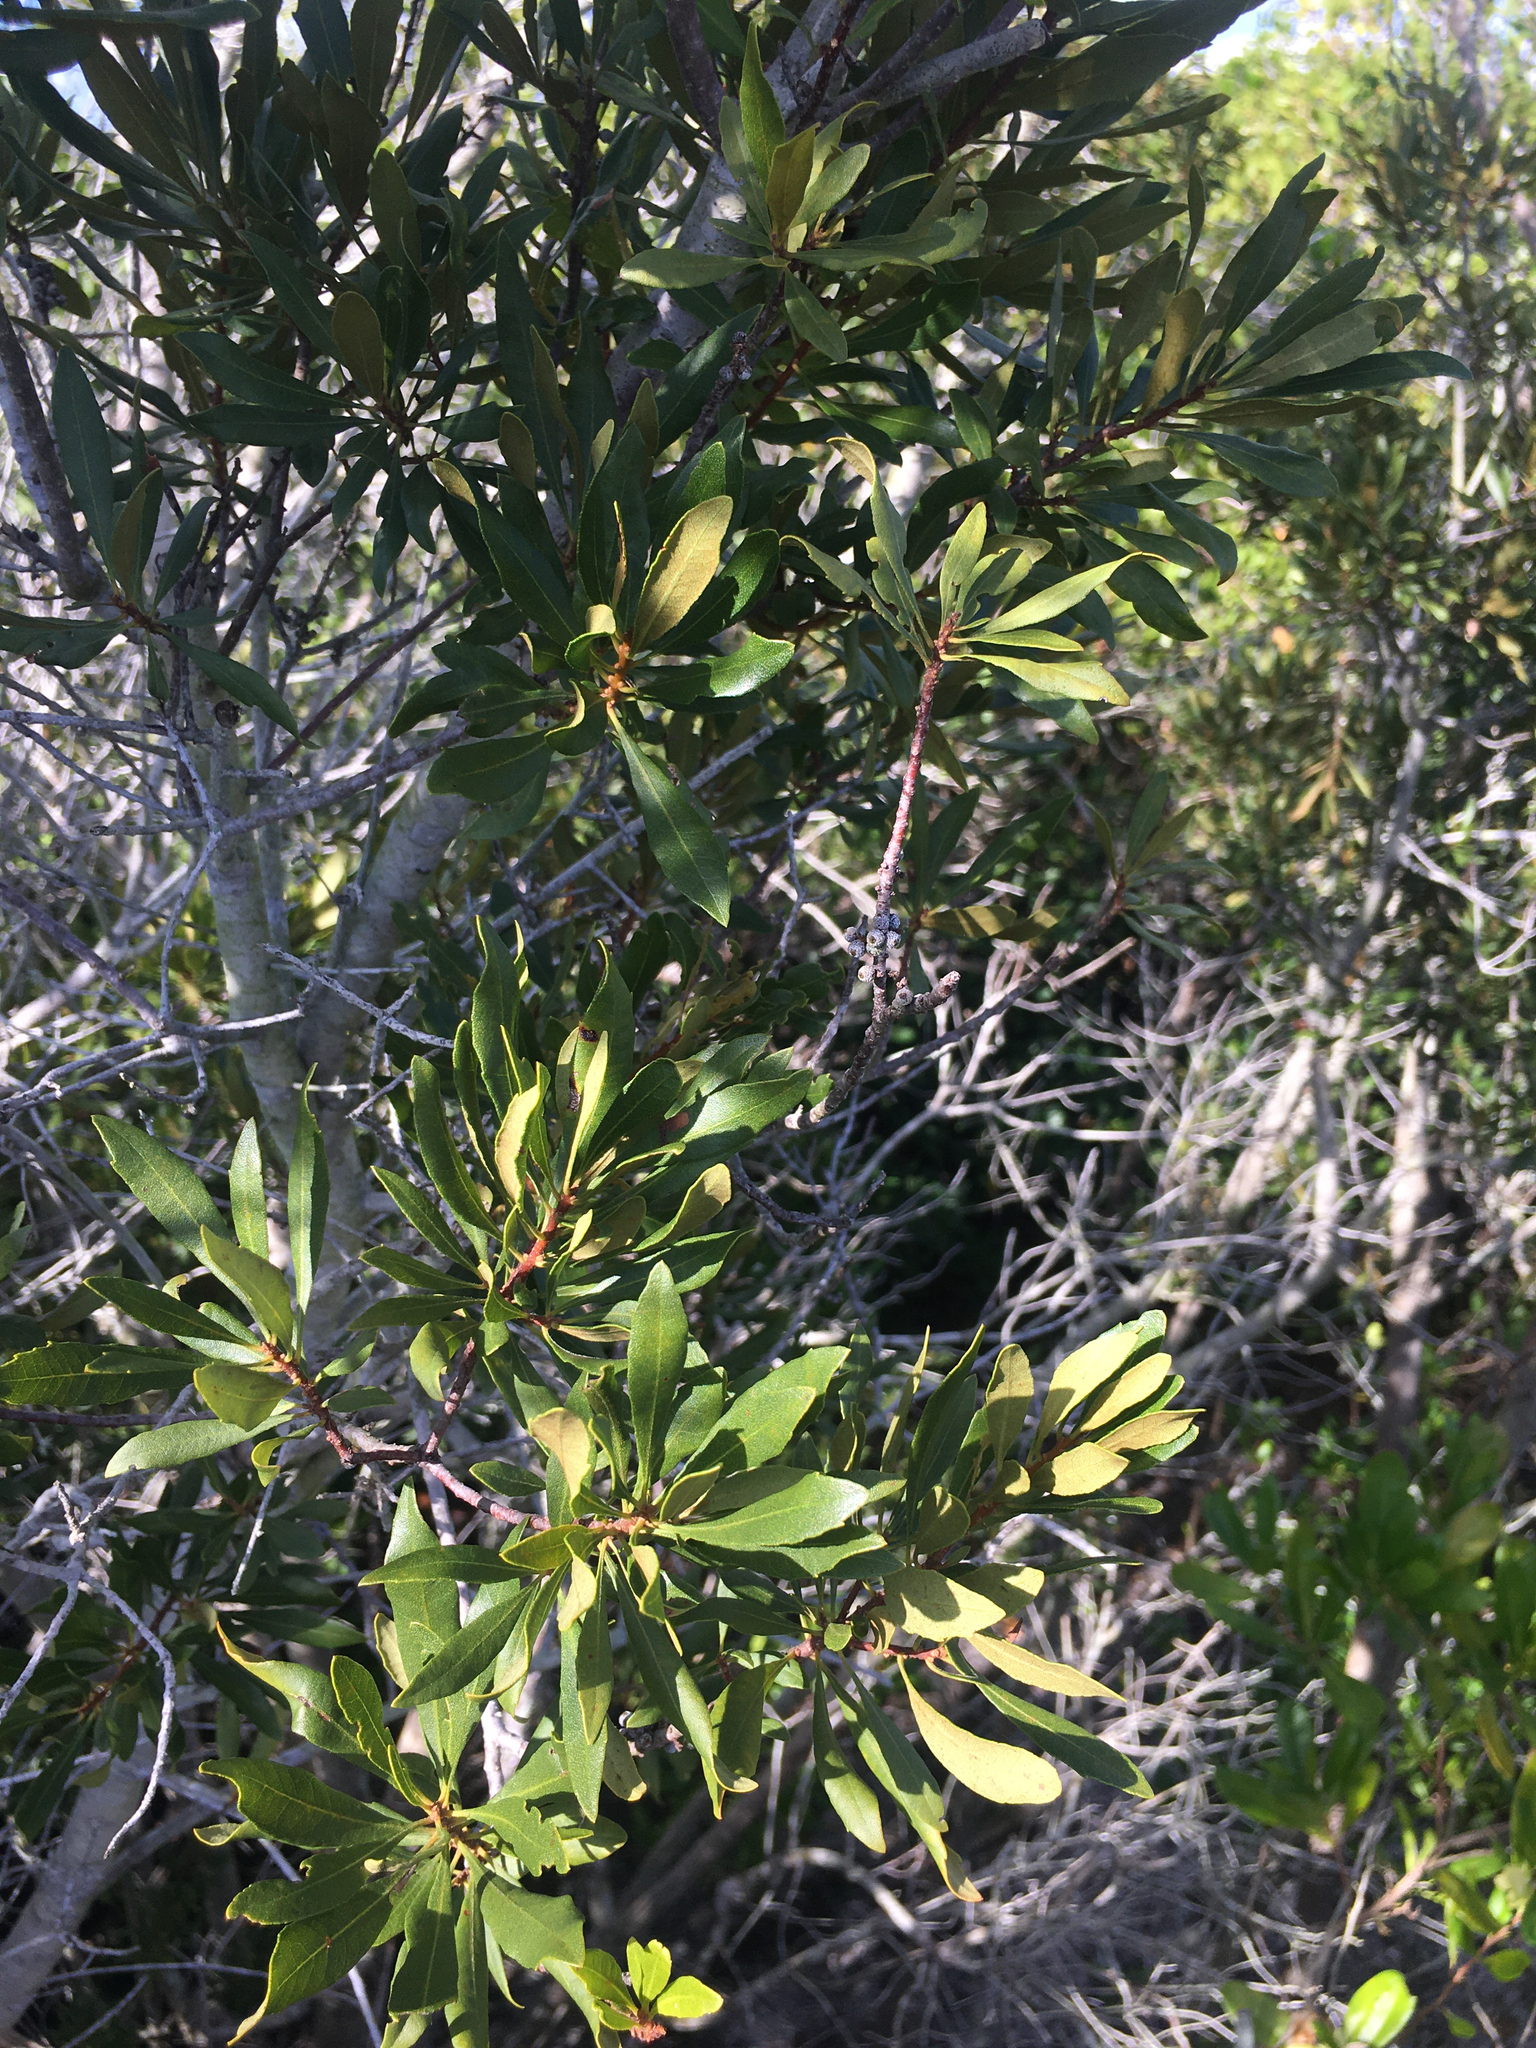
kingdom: Plantae
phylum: Tracheophyta
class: Magnoliopsida
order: Fagales
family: Myricaceae
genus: Morella
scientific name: Morella cerifera
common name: Wax myrtle
